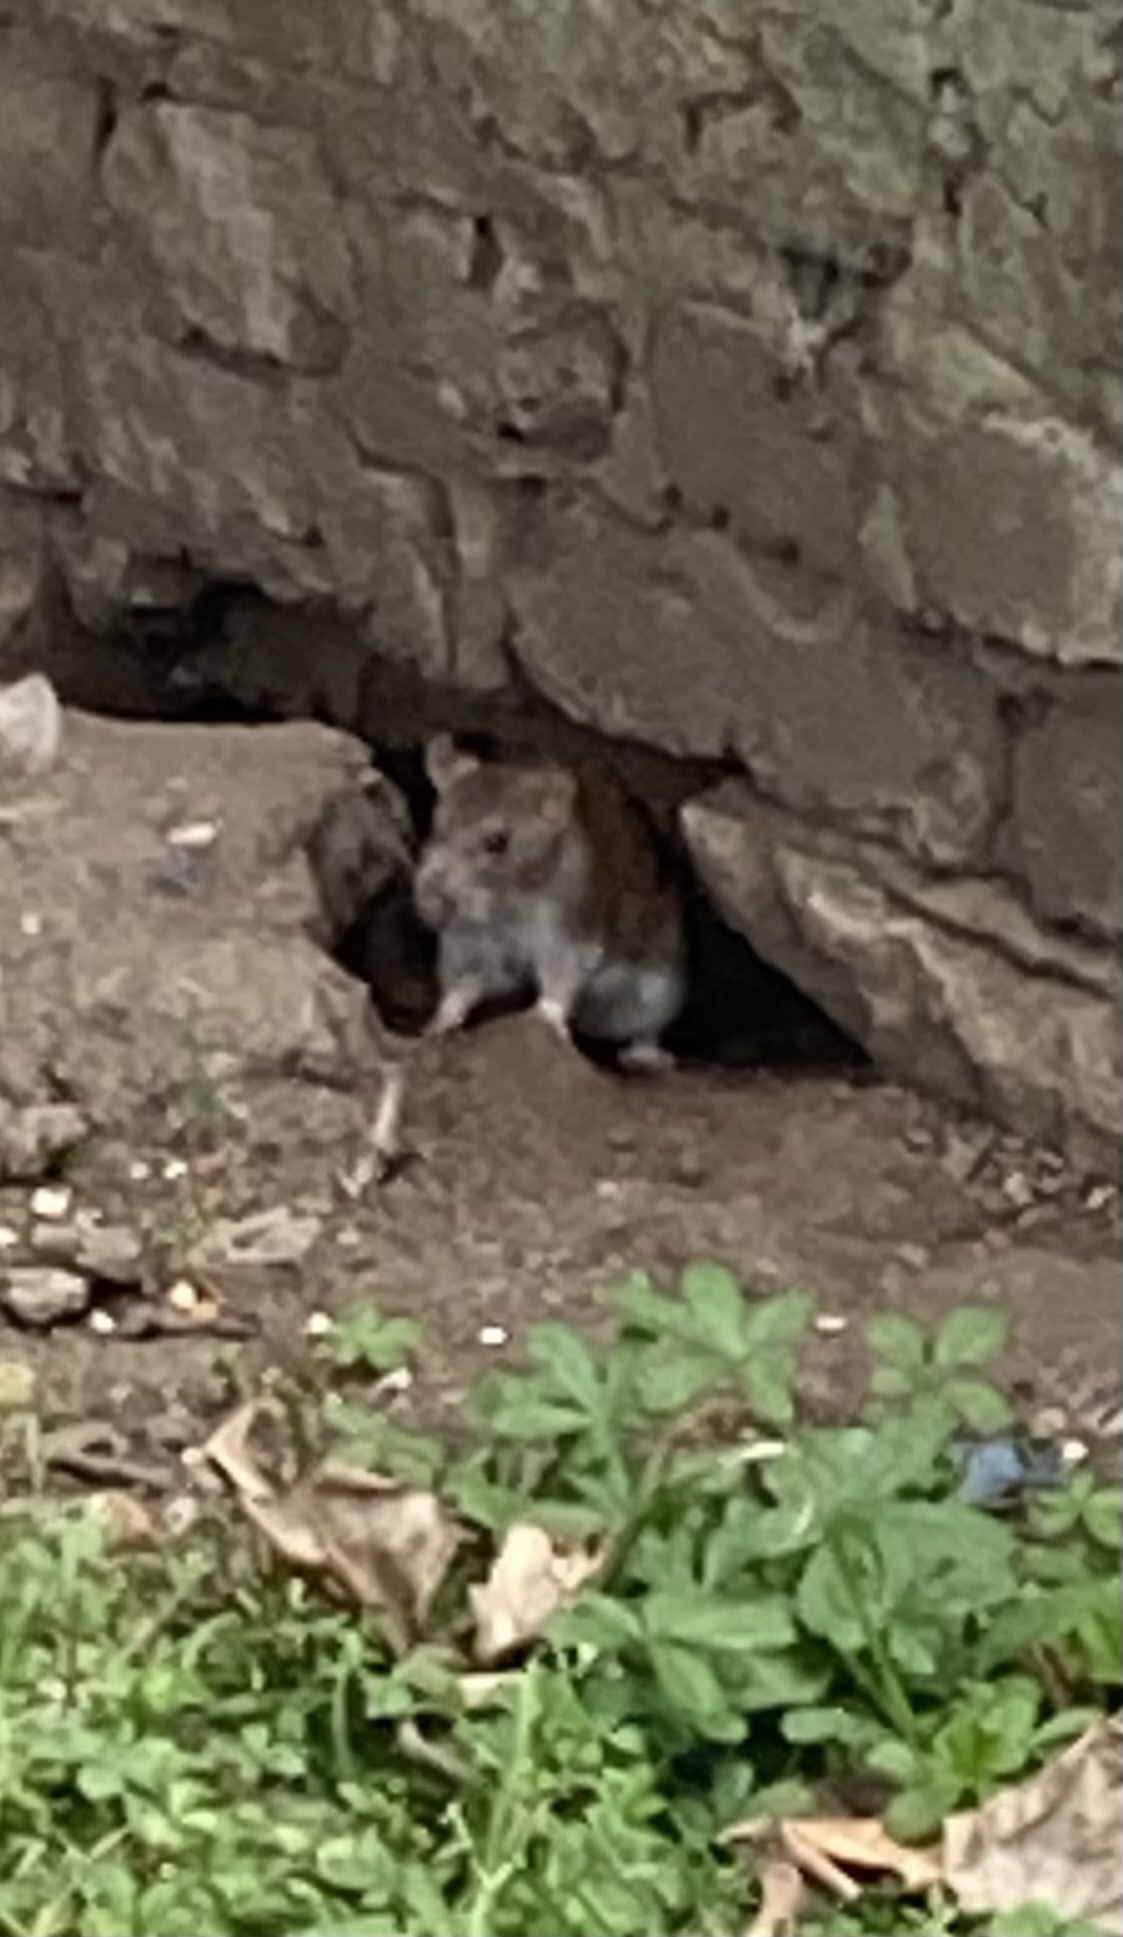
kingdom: Animalia
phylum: Chordata
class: Mammalia
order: Rodentia
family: Muridae
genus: Rattus
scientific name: Rattus norvegicus
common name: Brown rat
